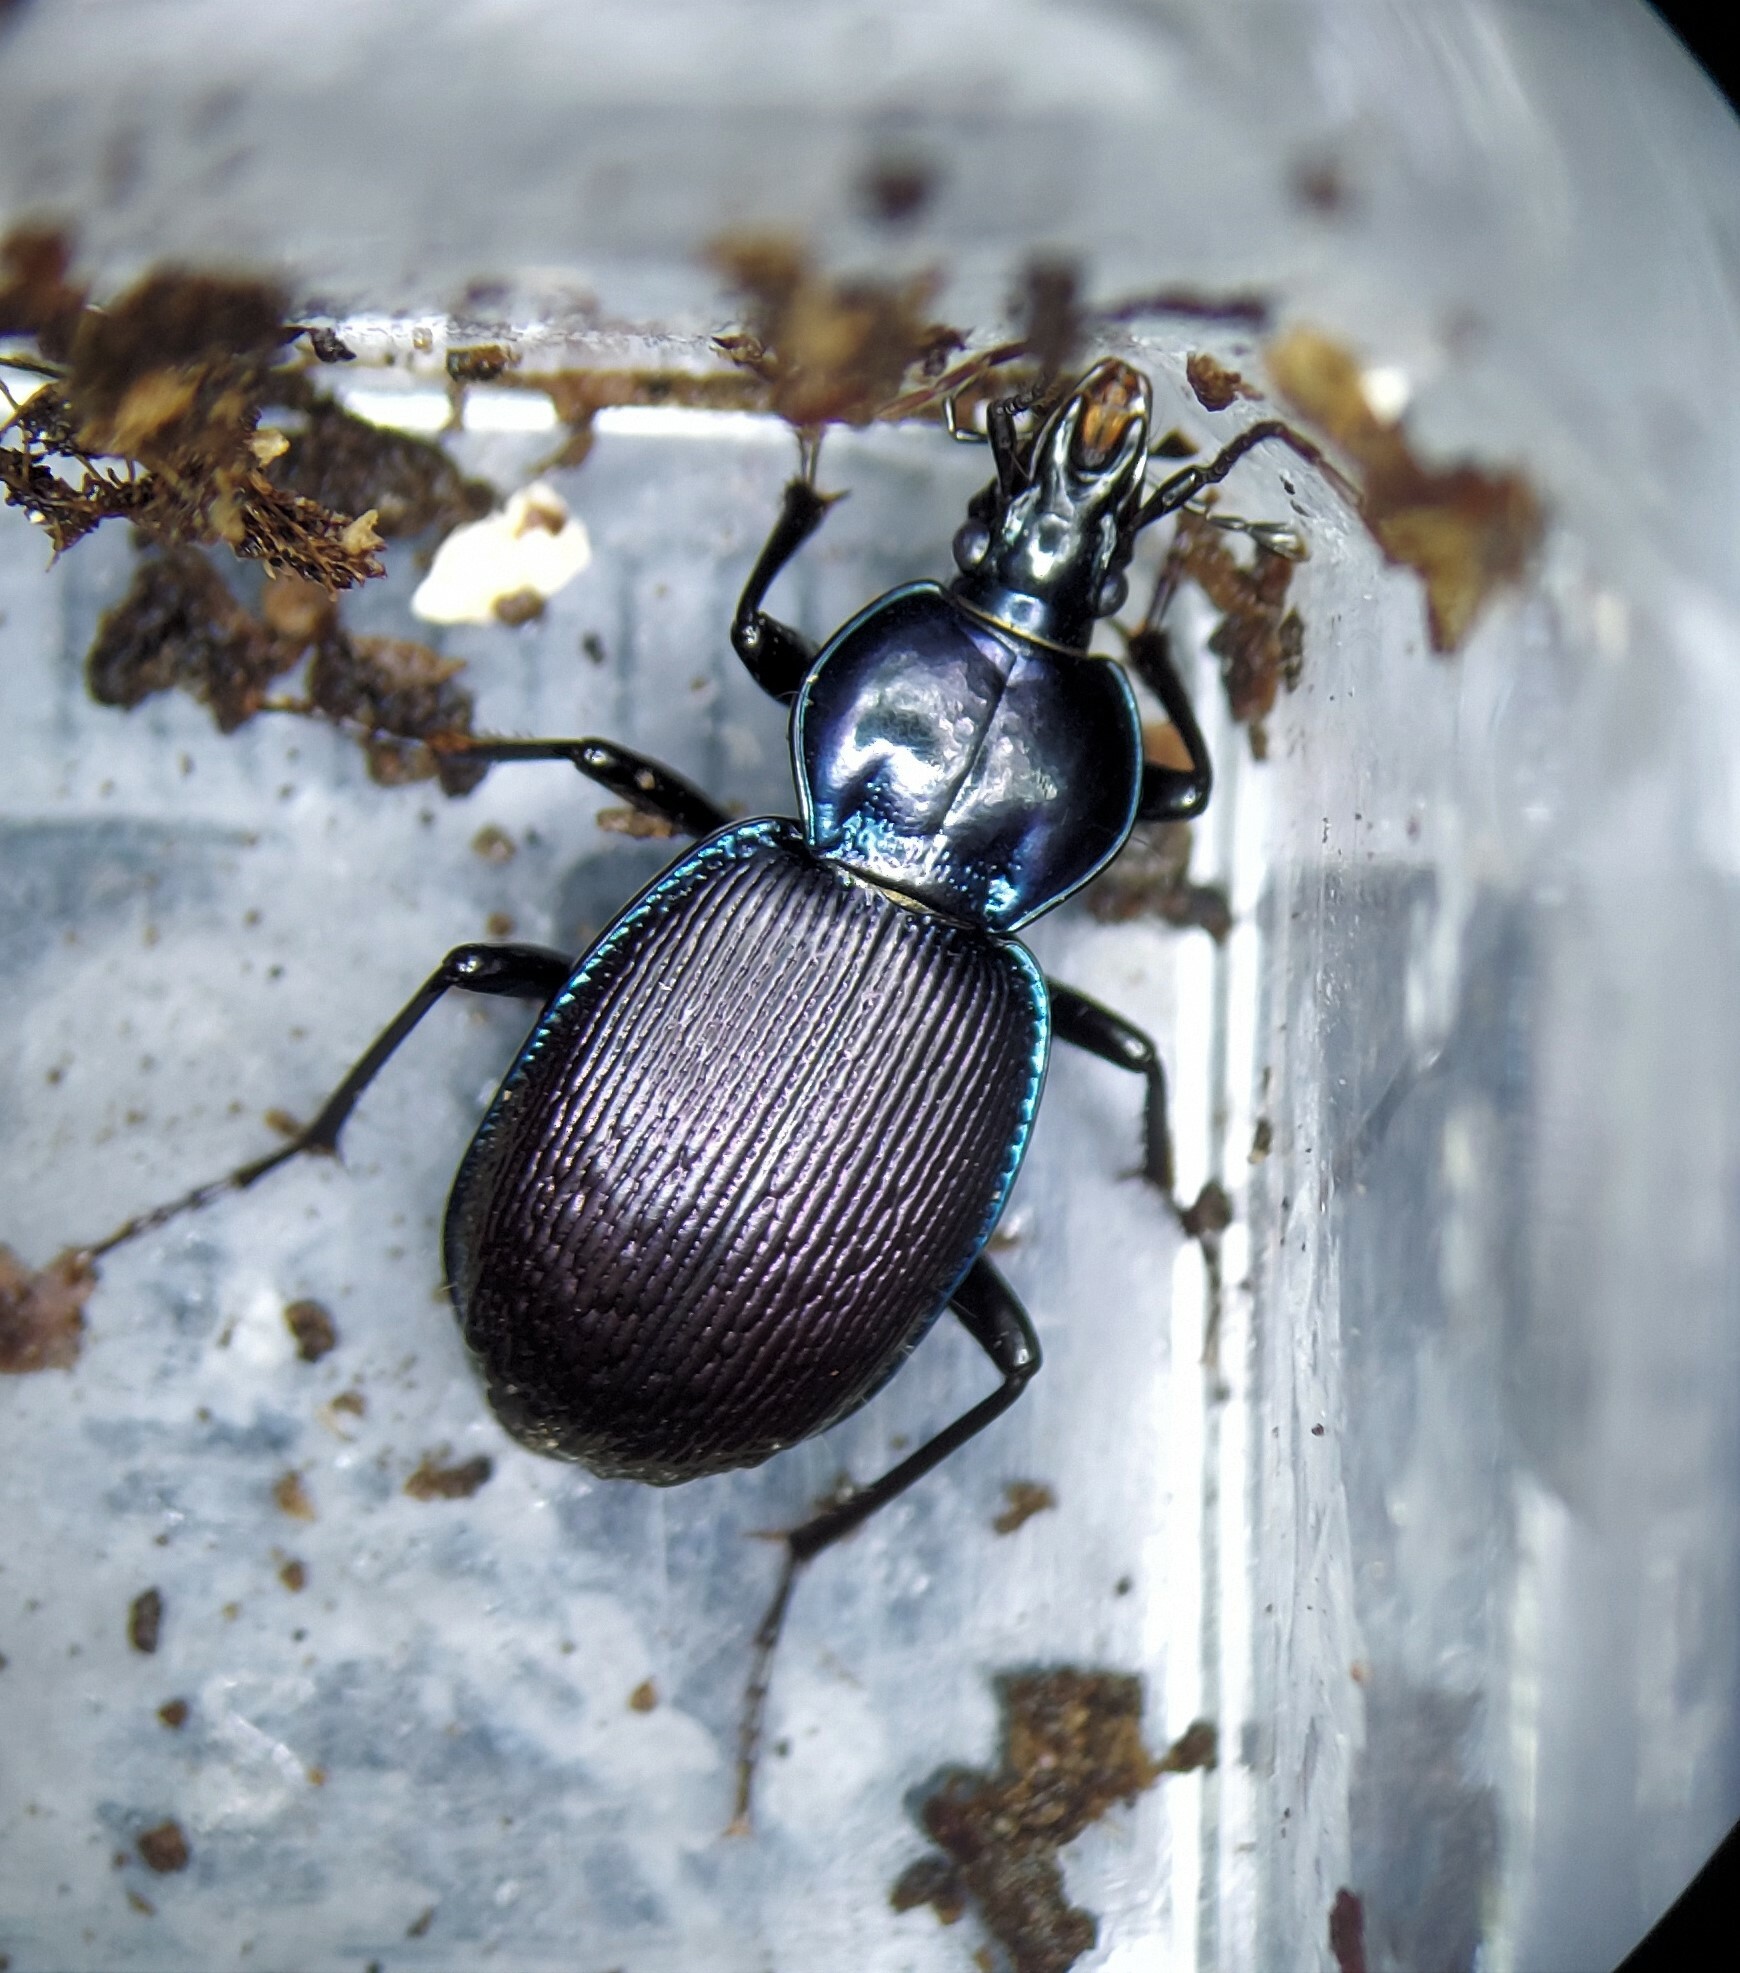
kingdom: Animalia
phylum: Arthropoda
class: Insecta
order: Coleoptera
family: Carabidae
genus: Sphaeroderus
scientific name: Sphaeroderus stenostomus
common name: Small snail-eating ground beetle
